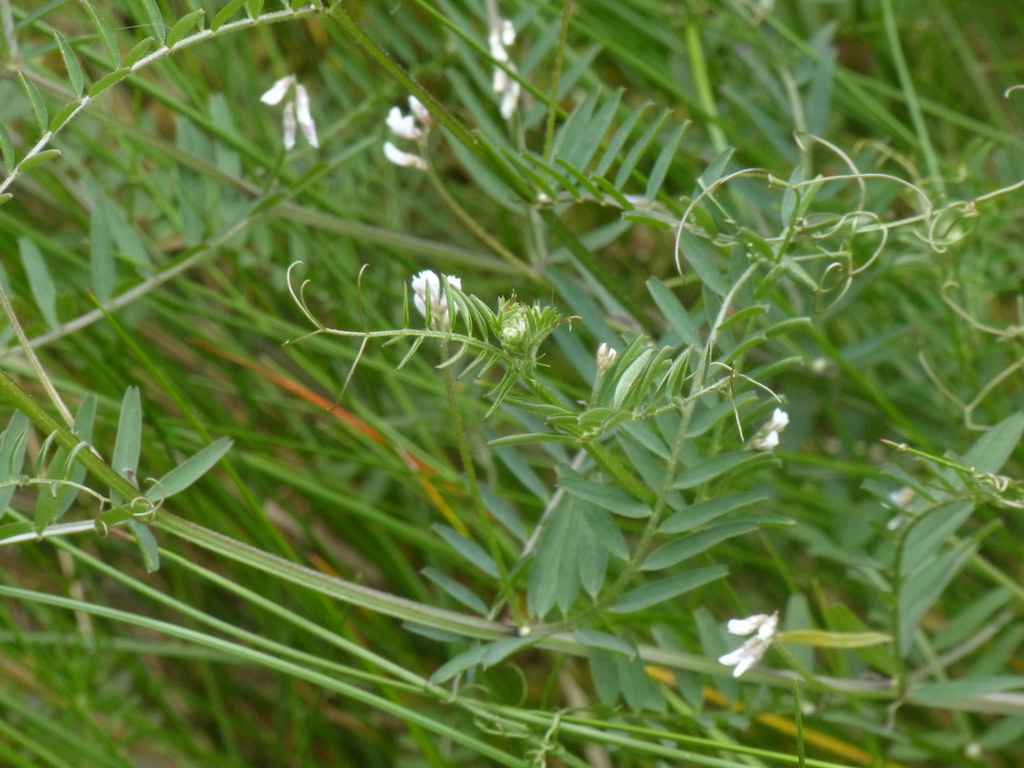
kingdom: Plantae
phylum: Tracheophyta
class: Magnoliopsida
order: Fabales
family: Fabaceae
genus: Vicia
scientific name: Vicia hirsuta
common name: Tiny vetch
